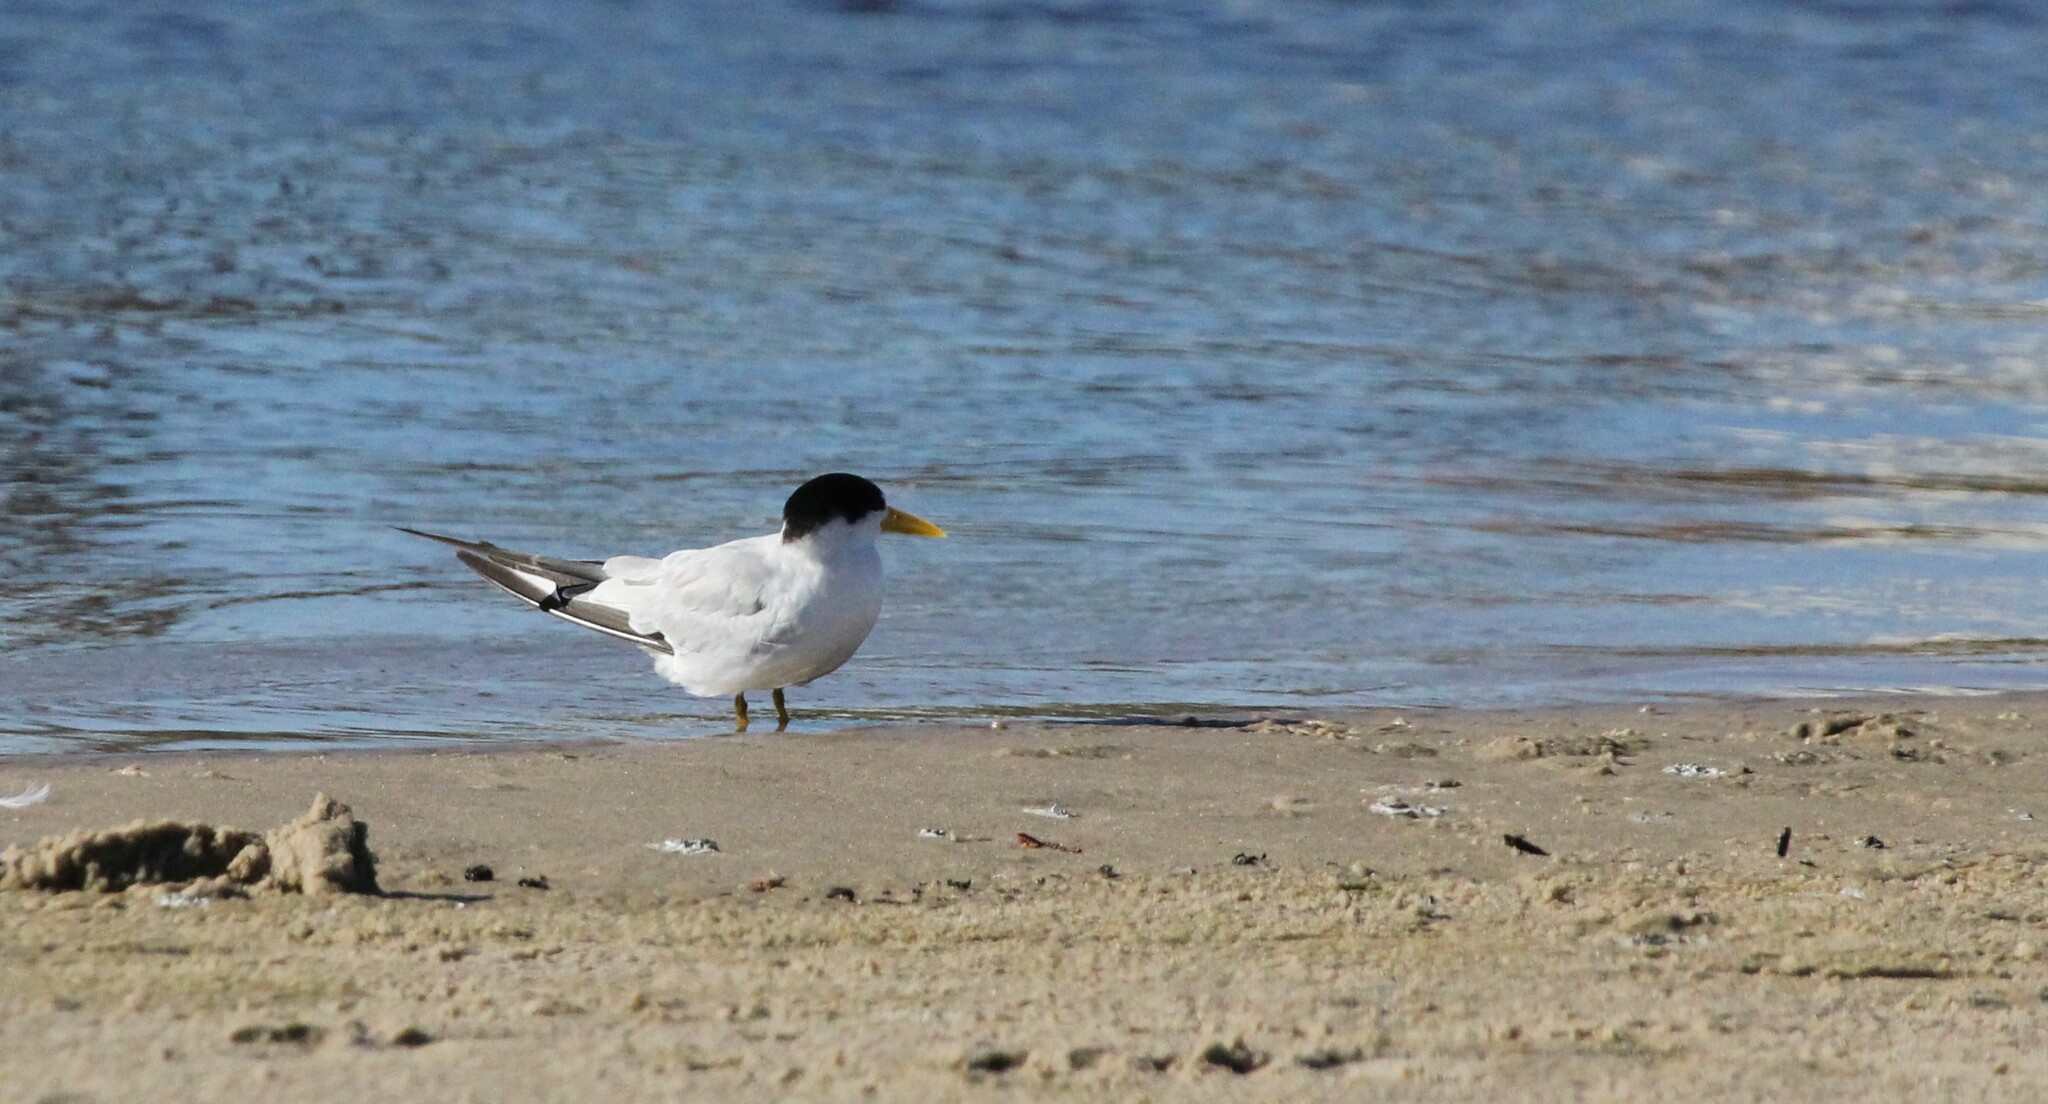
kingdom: Animalia
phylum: Chordata
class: Aves
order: Charadriiformes
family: Laridae
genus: Sternula
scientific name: Sternula superciliaris
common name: Yellow-billed tern
